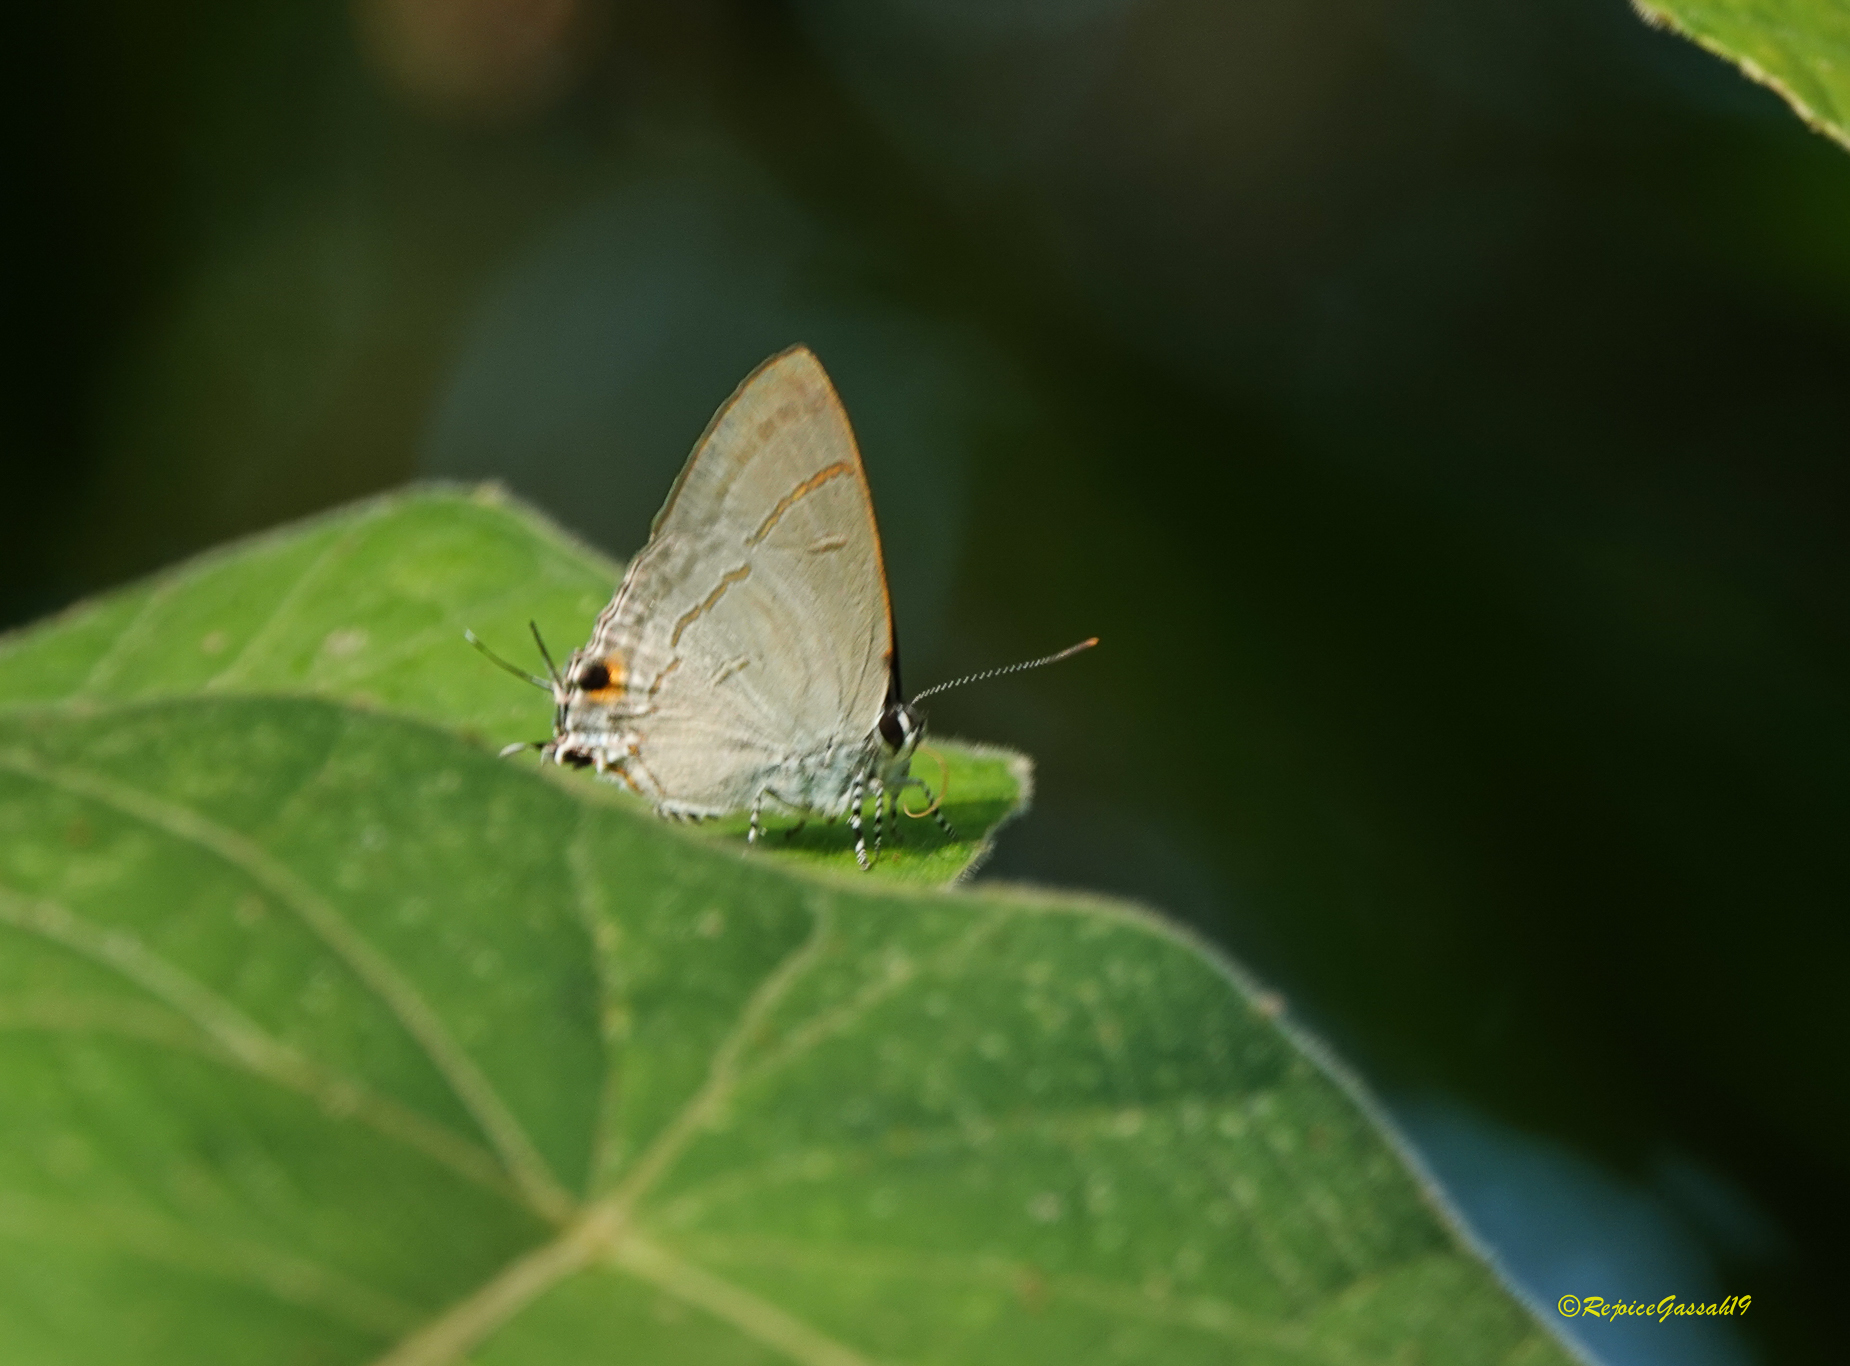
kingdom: Animalia
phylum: Arthropoda
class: Insecta
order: Lepidoptera
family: Lycaenidae
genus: Hypolycaena
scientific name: Hypolycaena erylus
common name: Common tit
